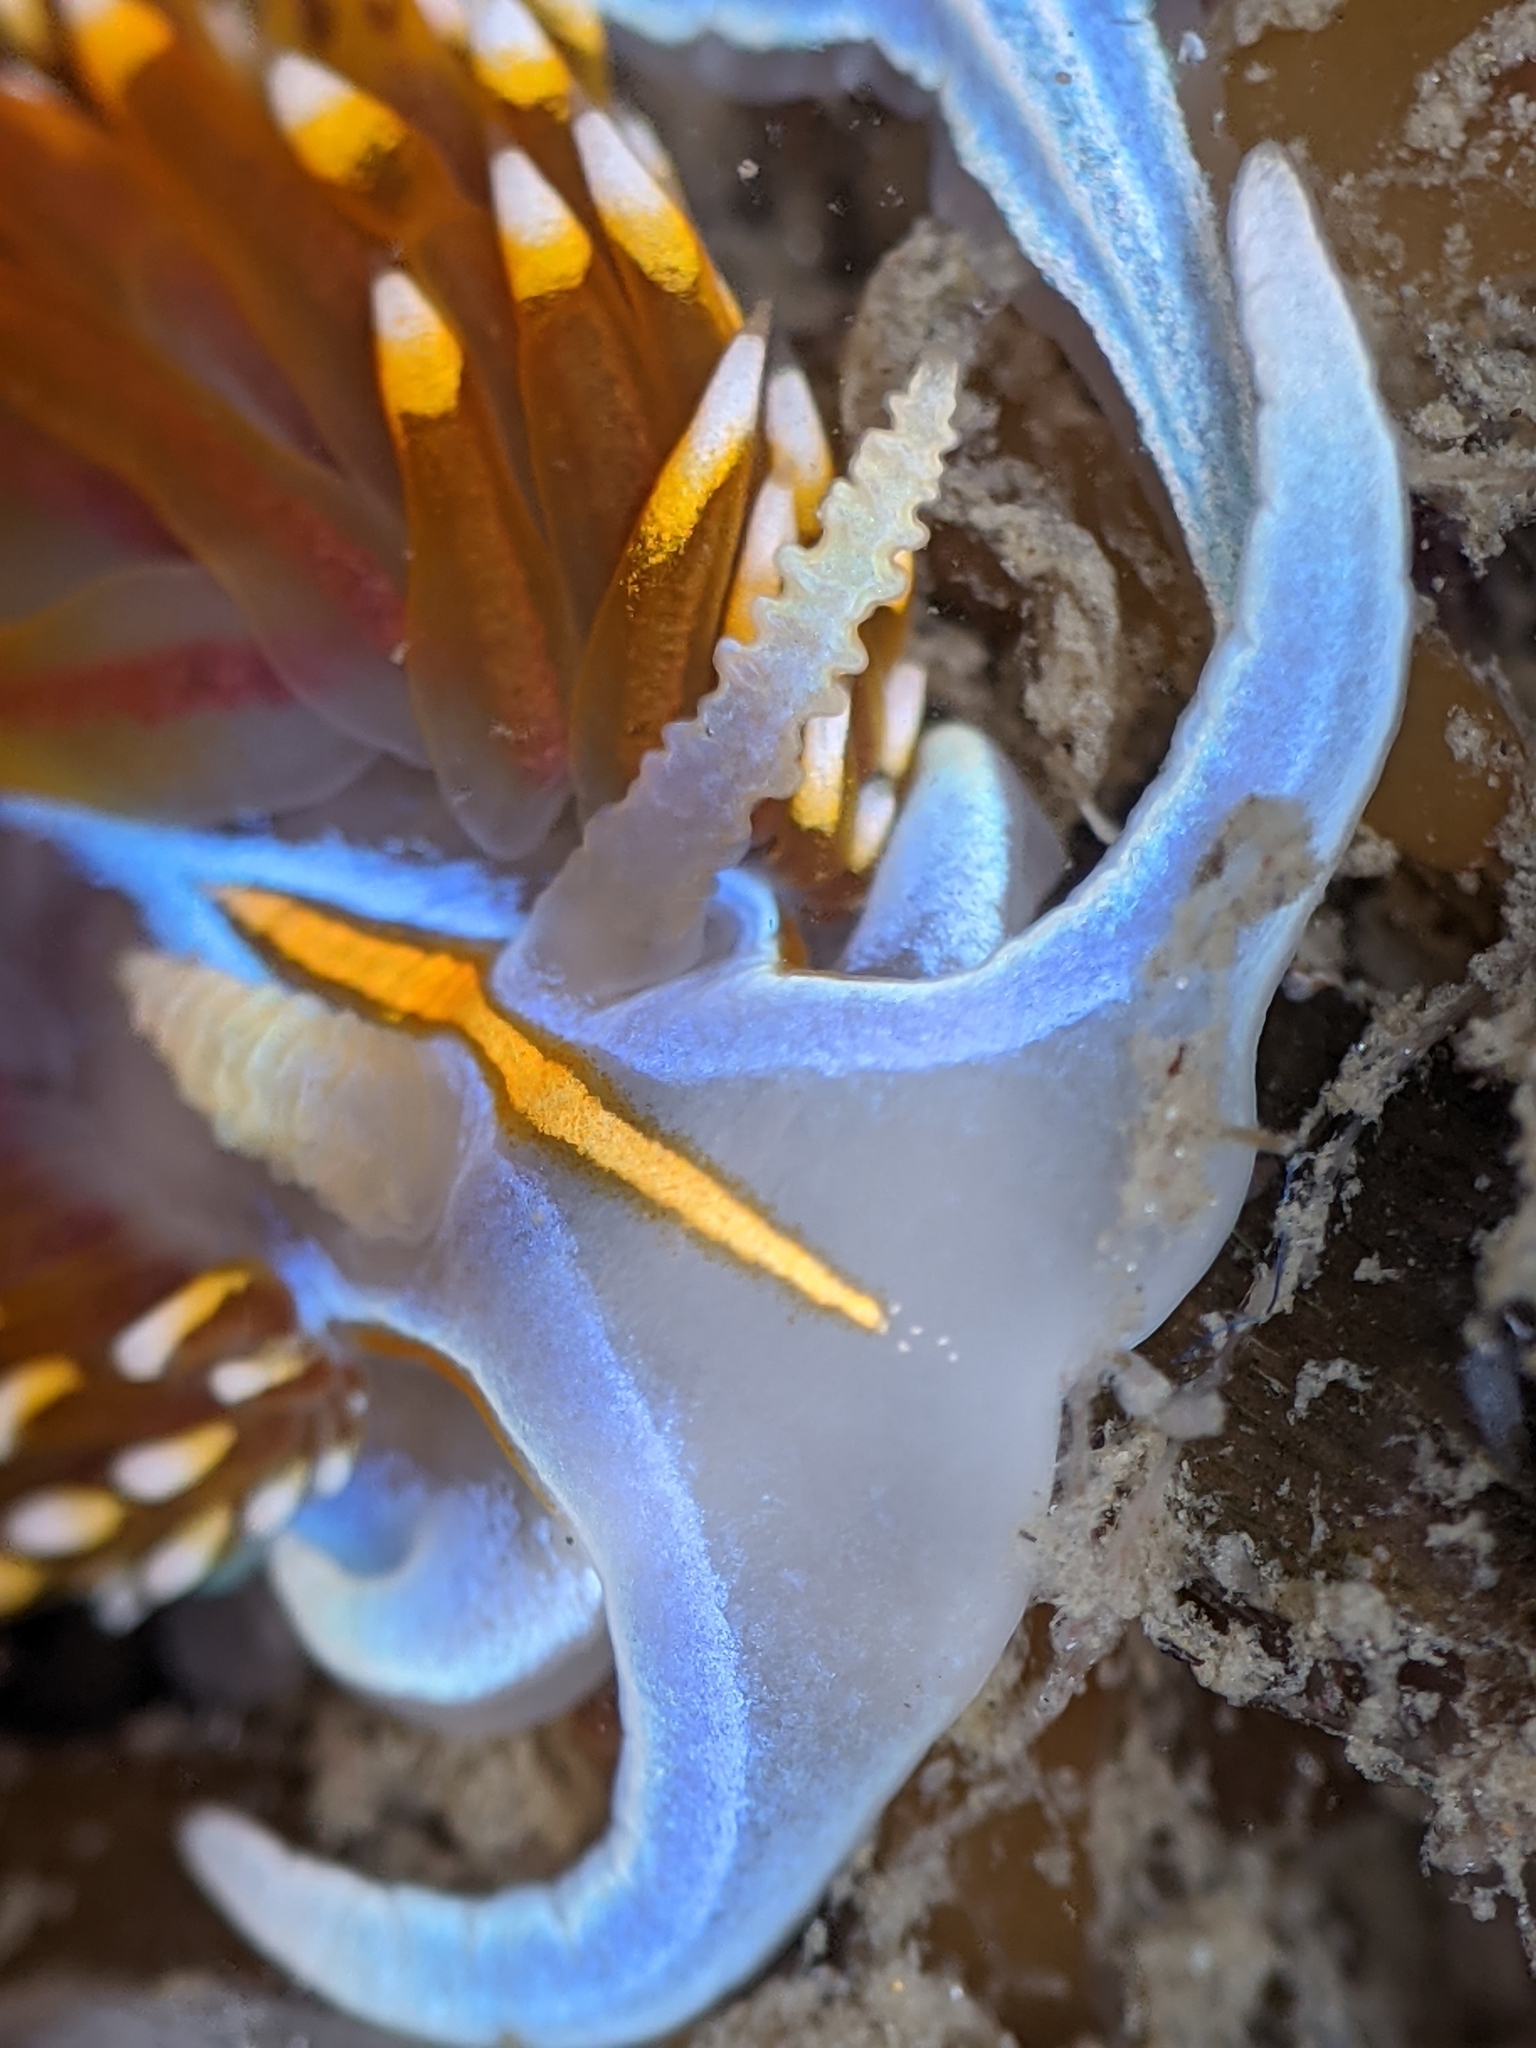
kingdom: Animalia
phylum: Mollusca
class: Gastropoda
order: Nudibranchia
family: Myrrhinidae
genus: Hermissenda
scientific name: Hermissenda opalescens
